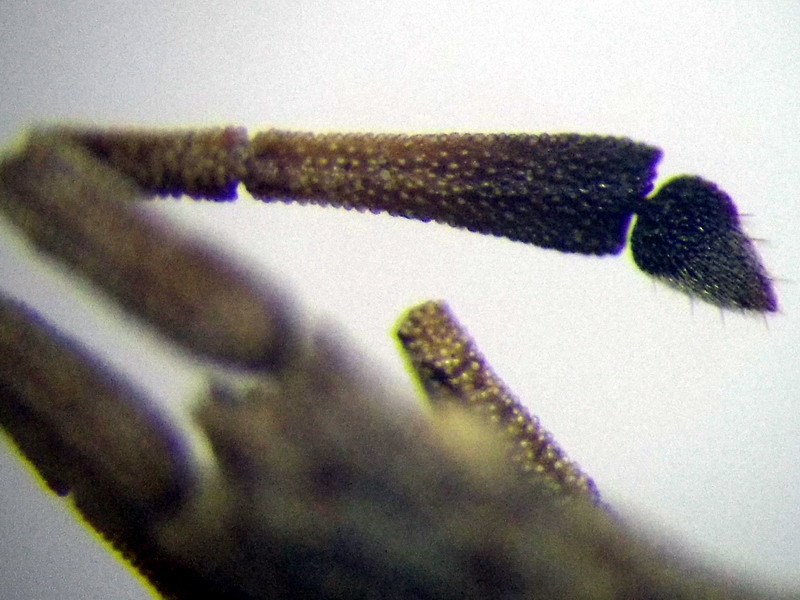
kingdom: Animalia
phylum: Arthropoda
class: Insecta
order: Hemiptera
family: Coreidae
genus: Spathocera
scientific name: Spathocera obscura
